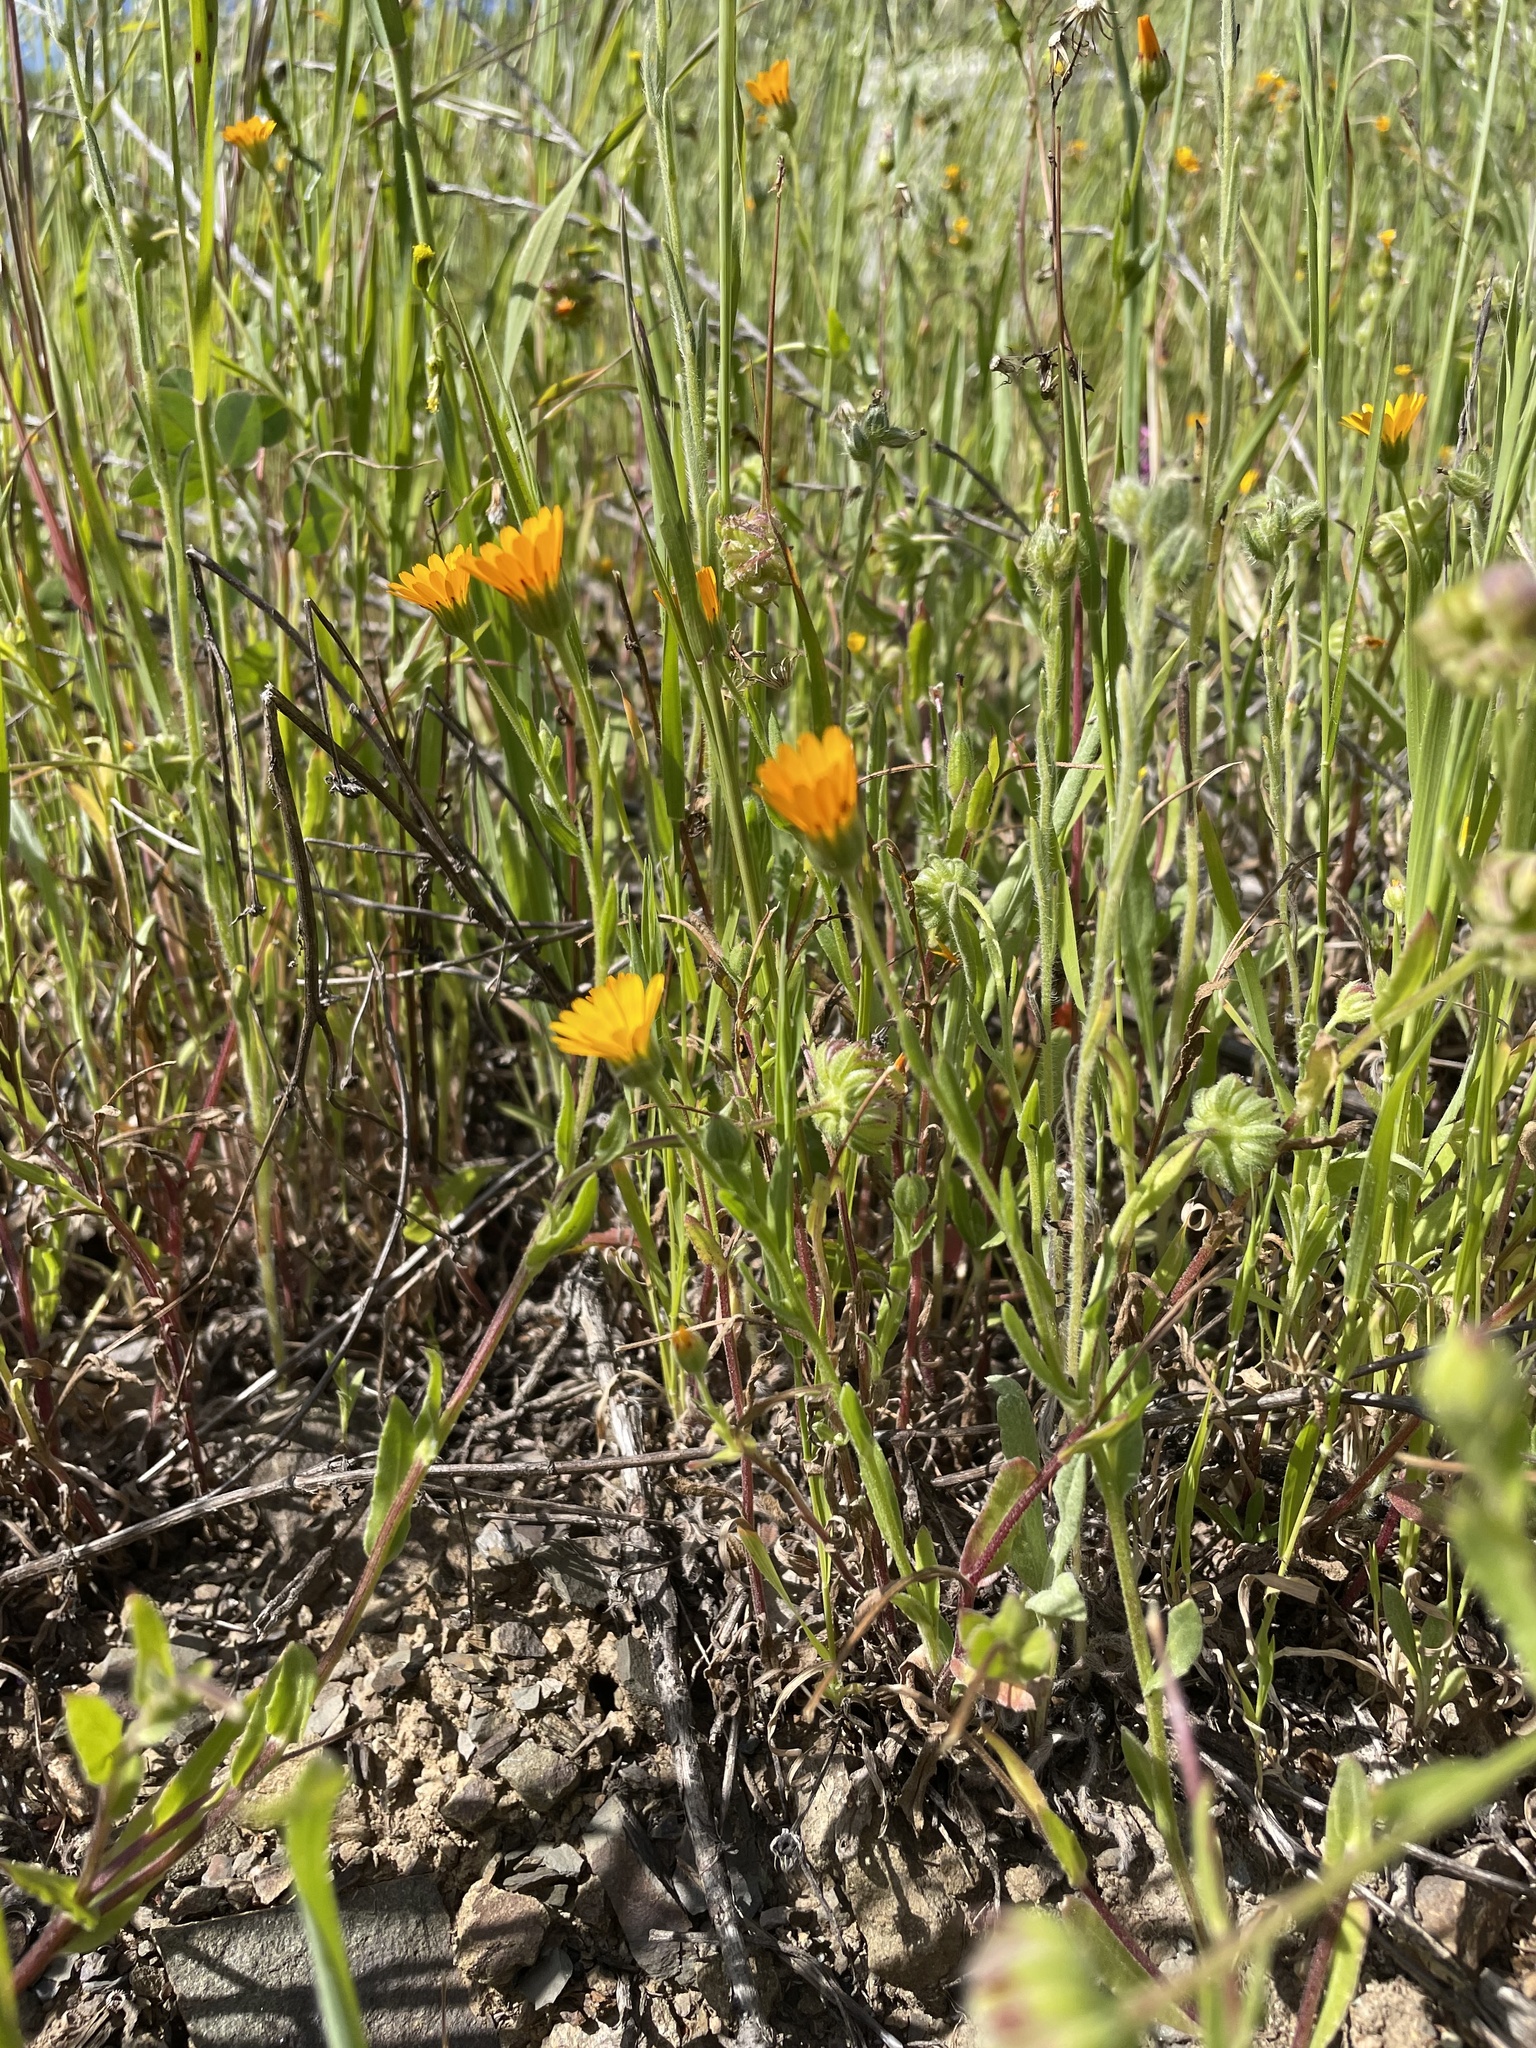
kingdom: Plantae
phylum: Tracheophyta
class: Magnoliopsida
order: Asterales
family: Asteraceae
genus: Calendula
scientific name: Calendula arvensis
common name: Field marigold
